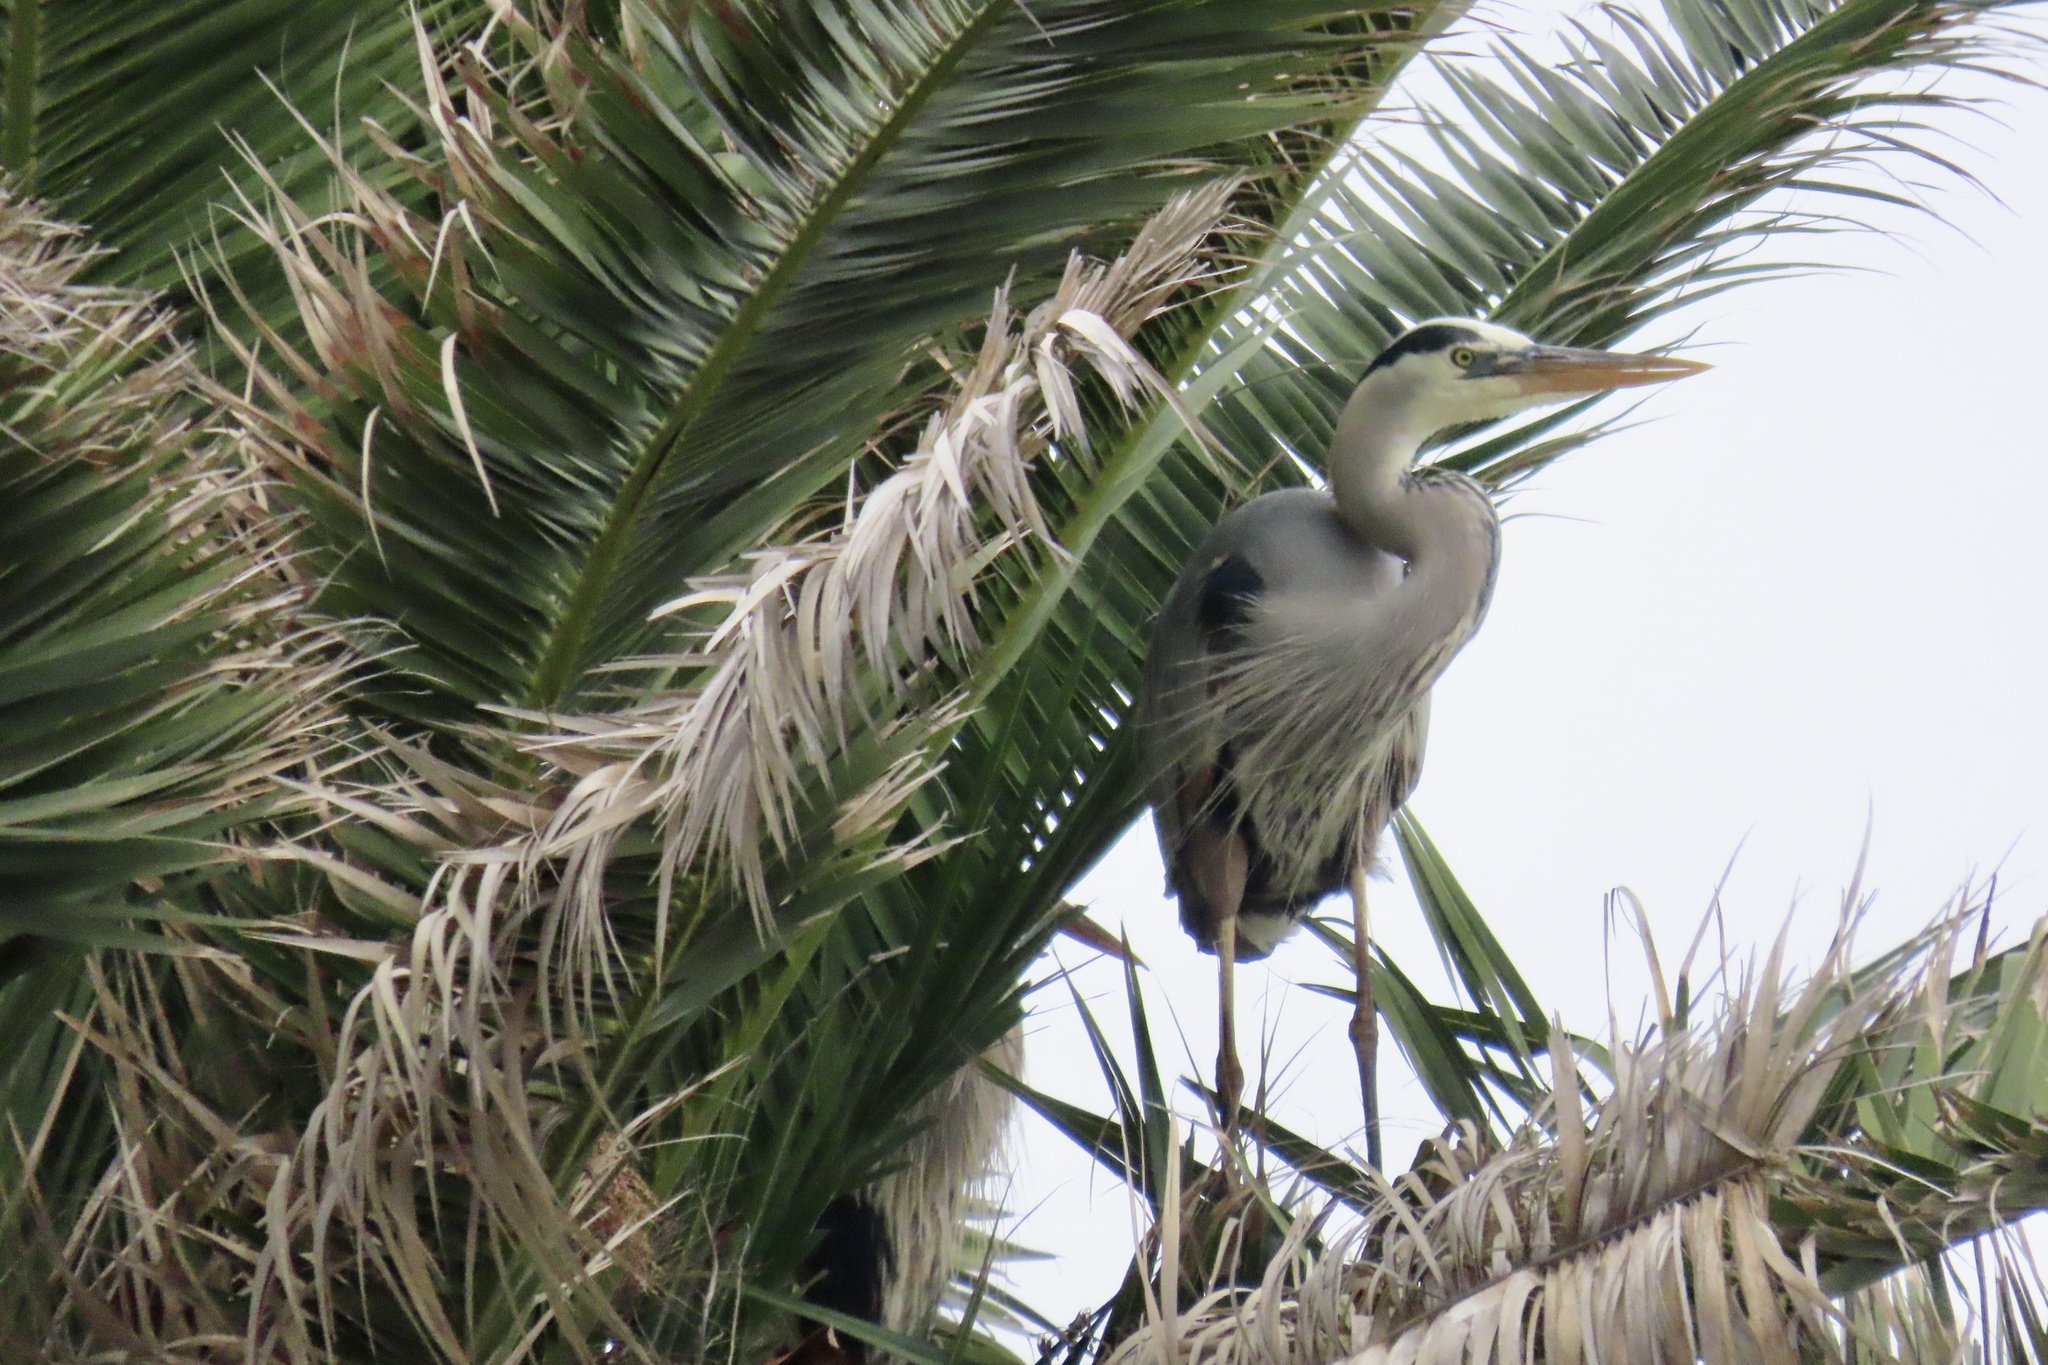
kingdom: Animalia
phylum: Chordata
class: Aves
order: Pelecaniformes
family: Ardeidae
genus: Ardea
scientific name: Ardea herodias
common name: Great blue heron
